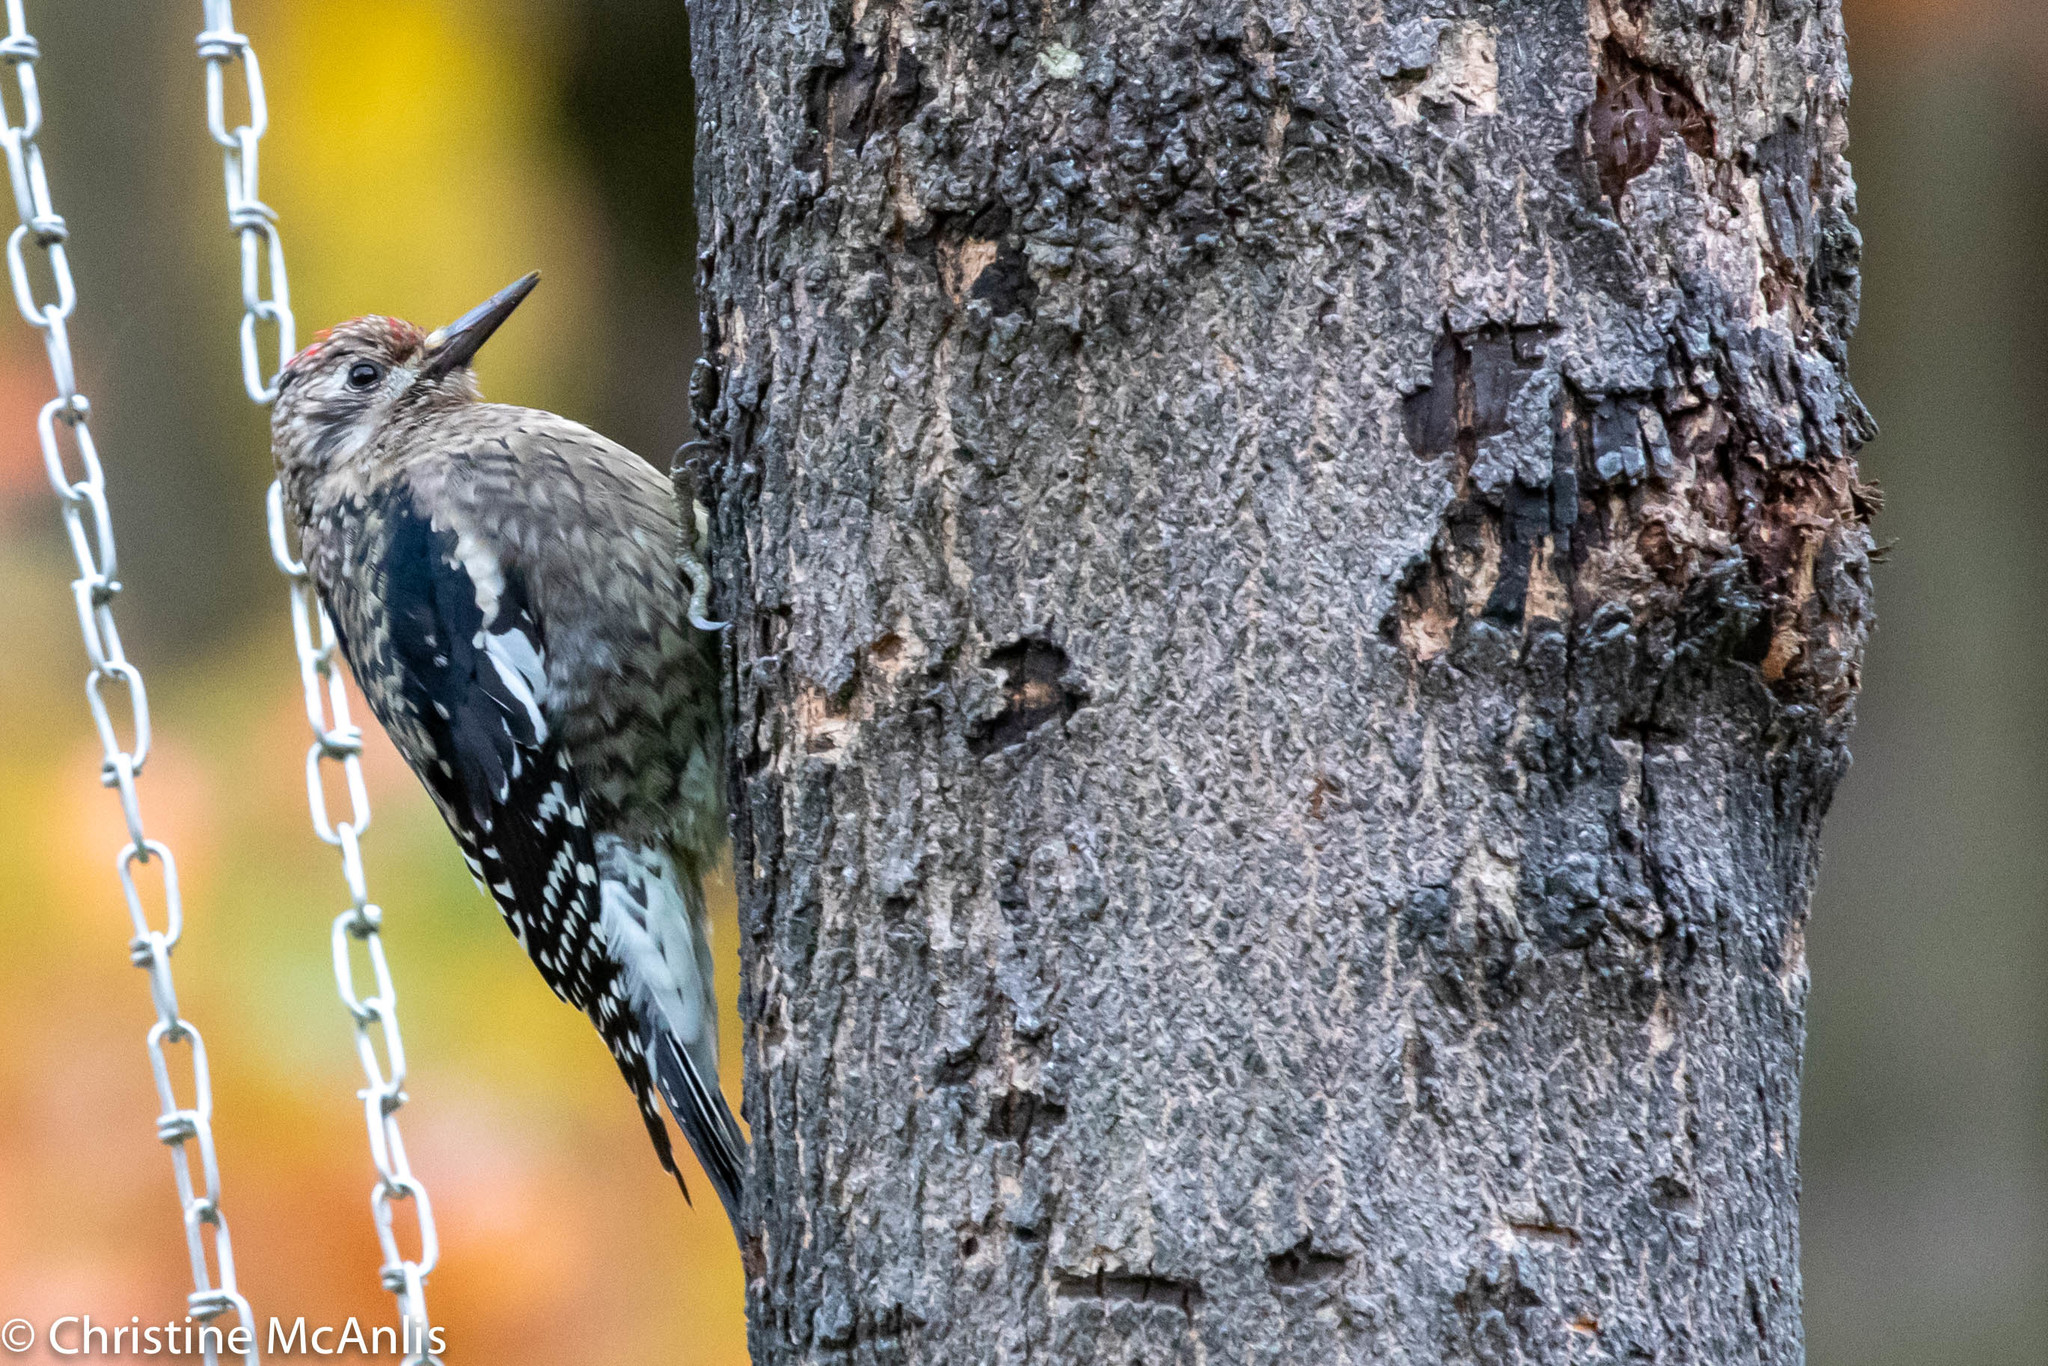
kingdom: Animalia
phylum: Chordata
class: Aves
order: Piciformes
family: Picidae
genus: Sphyrapicus
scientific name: Sphyrapicus varius
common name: Yellow-bellied sapsucker
